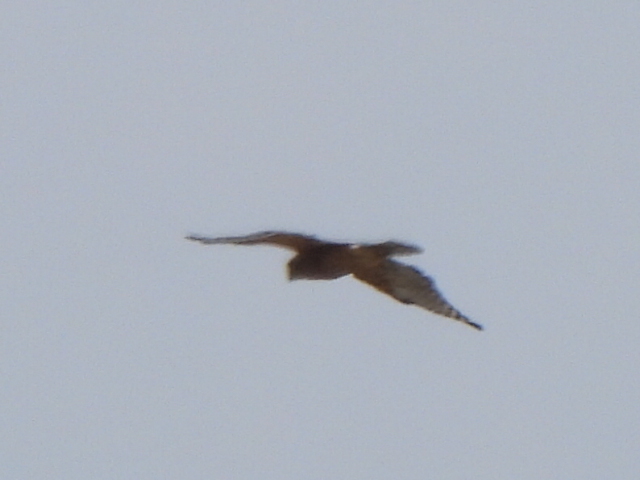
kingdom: Animalia
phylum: Chordata
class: Aves
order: Accipitriformes
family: Accipitridae
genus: Buteo
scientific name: Buteo lineatus
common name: Red-shouldered hawk
